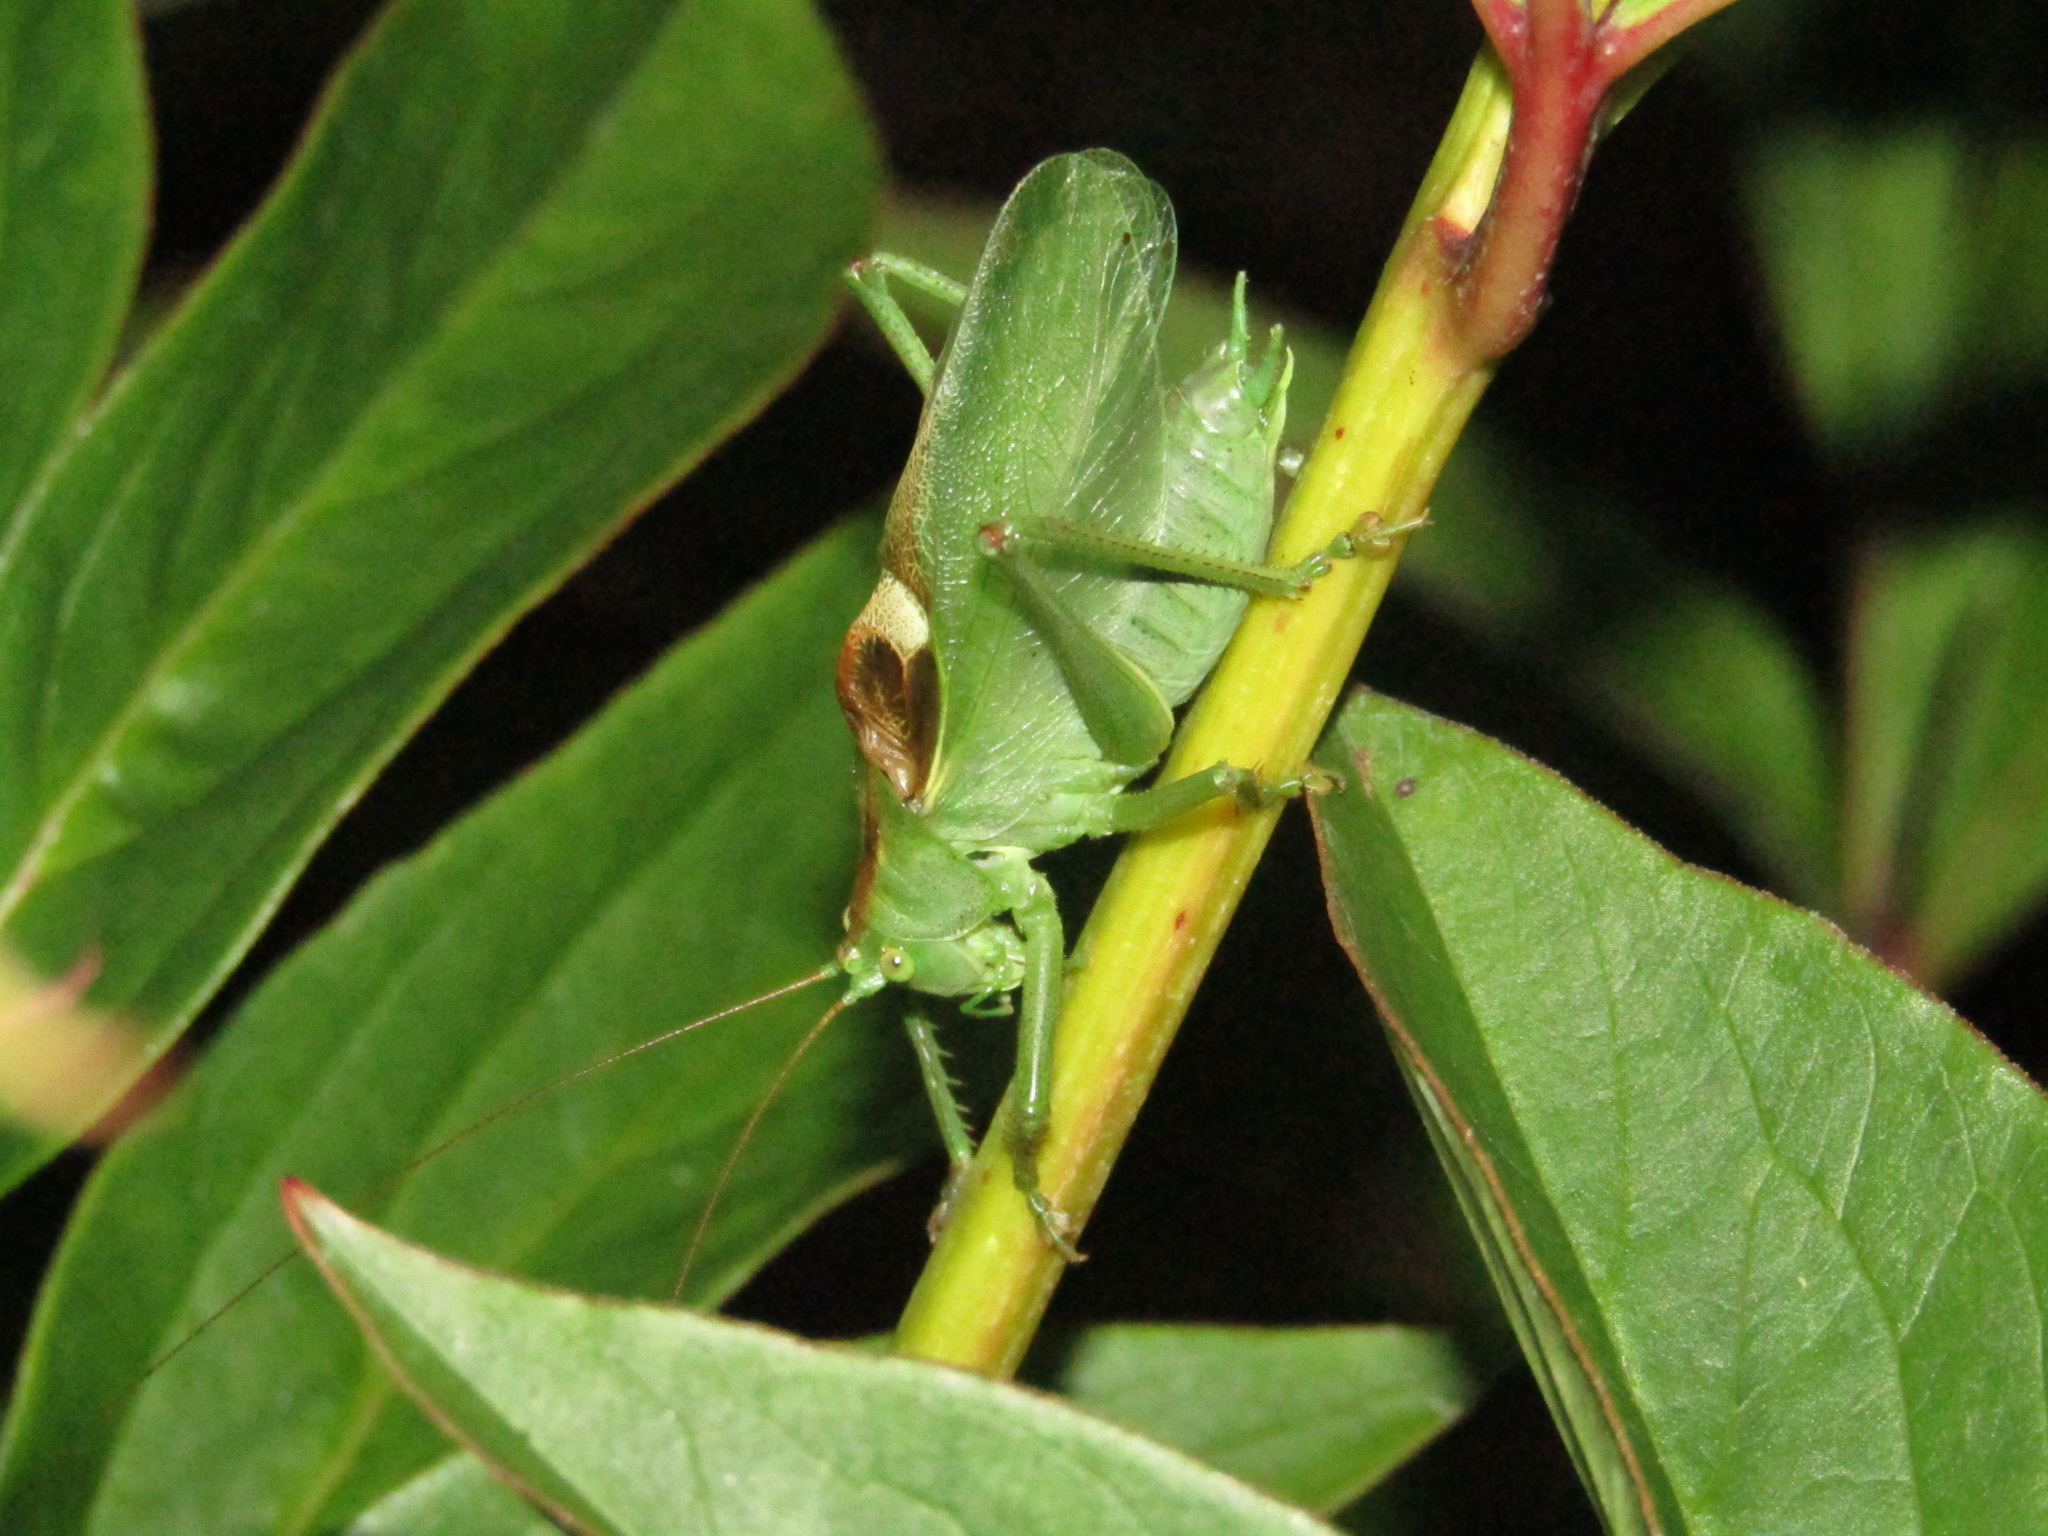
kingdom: Animalia
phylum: Arthropoda
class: Insecta
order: Orthoptera
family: Tettigoniidae
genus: Tettigonia
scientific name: Tettigonia cantans
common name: Upland green bush-cricket
